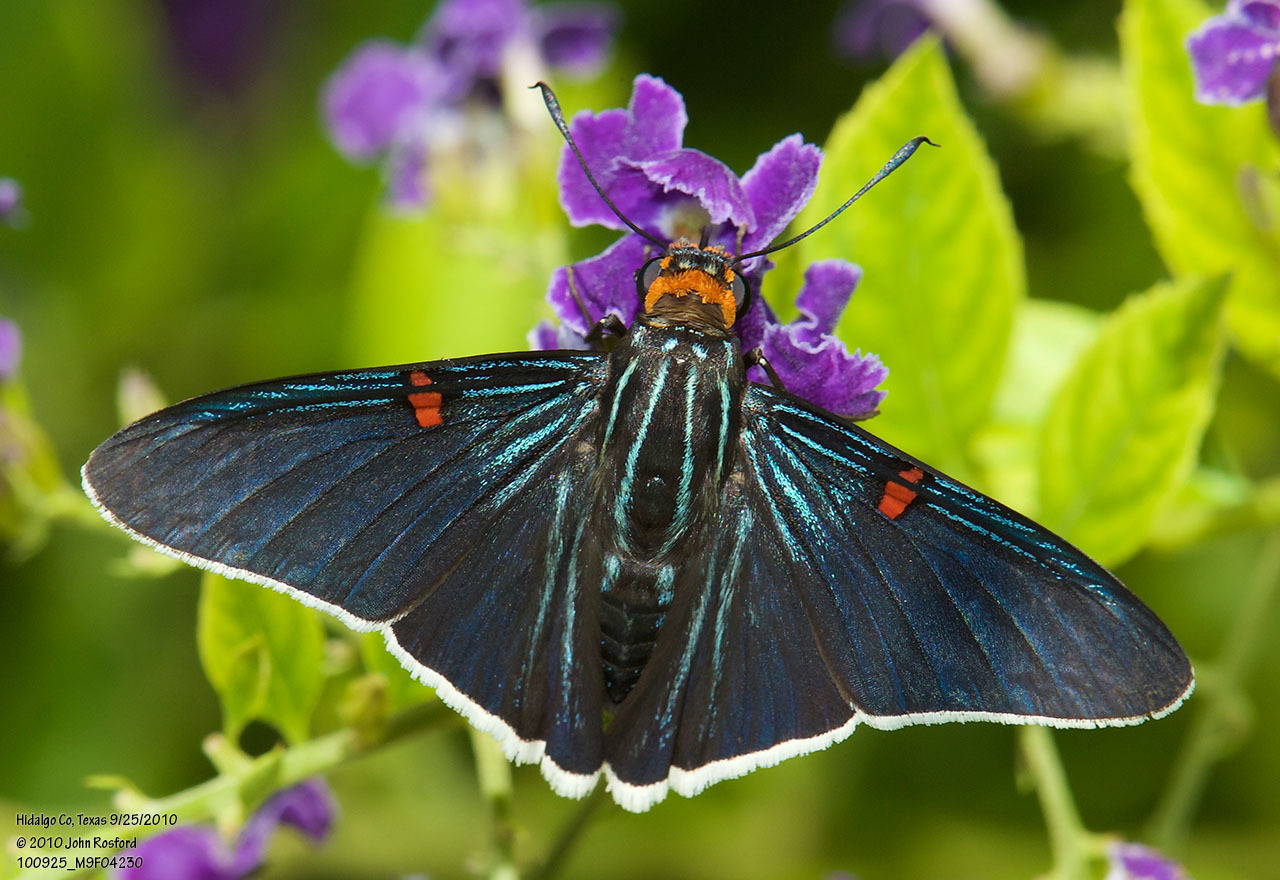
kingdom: Animalia
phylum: Arthropoda
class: Insecta
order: Lepidoptera
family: Hesperiidae
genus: Phocides
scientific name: Phocides lilea
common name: Guava skipper
